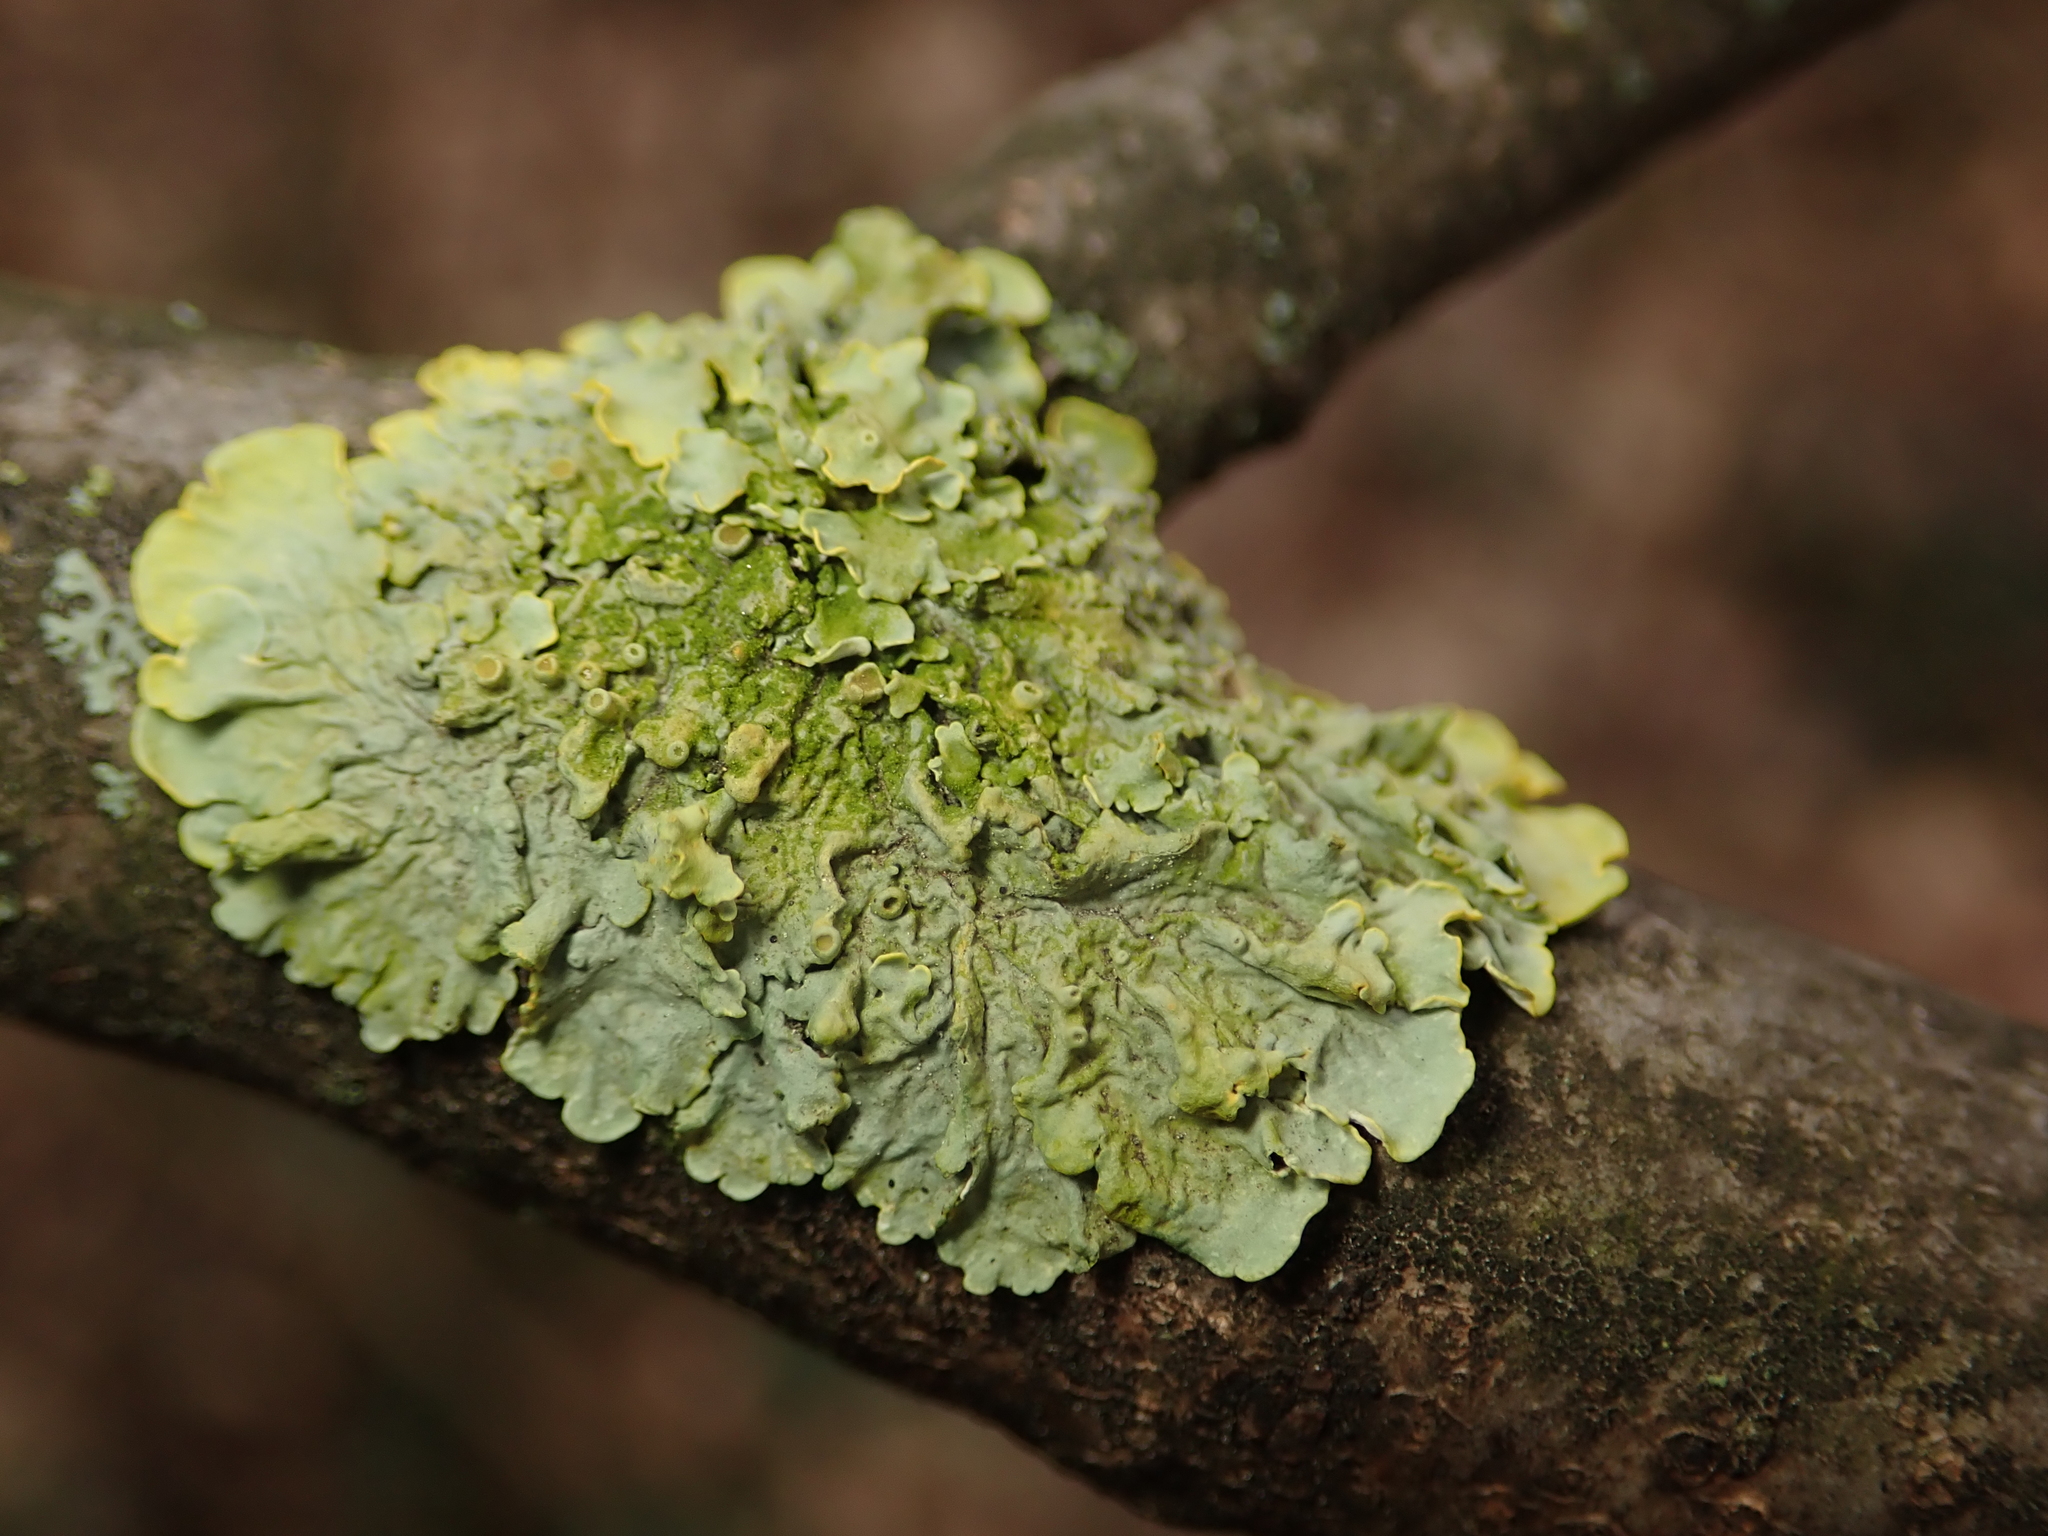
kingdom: Fungi
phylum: Ascomycota
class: Lecanoromycetes
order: Teloschistales
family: Teloschistaceae
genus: Xanthoria
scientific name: Xanthoria parietina
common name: Common orange lichen
